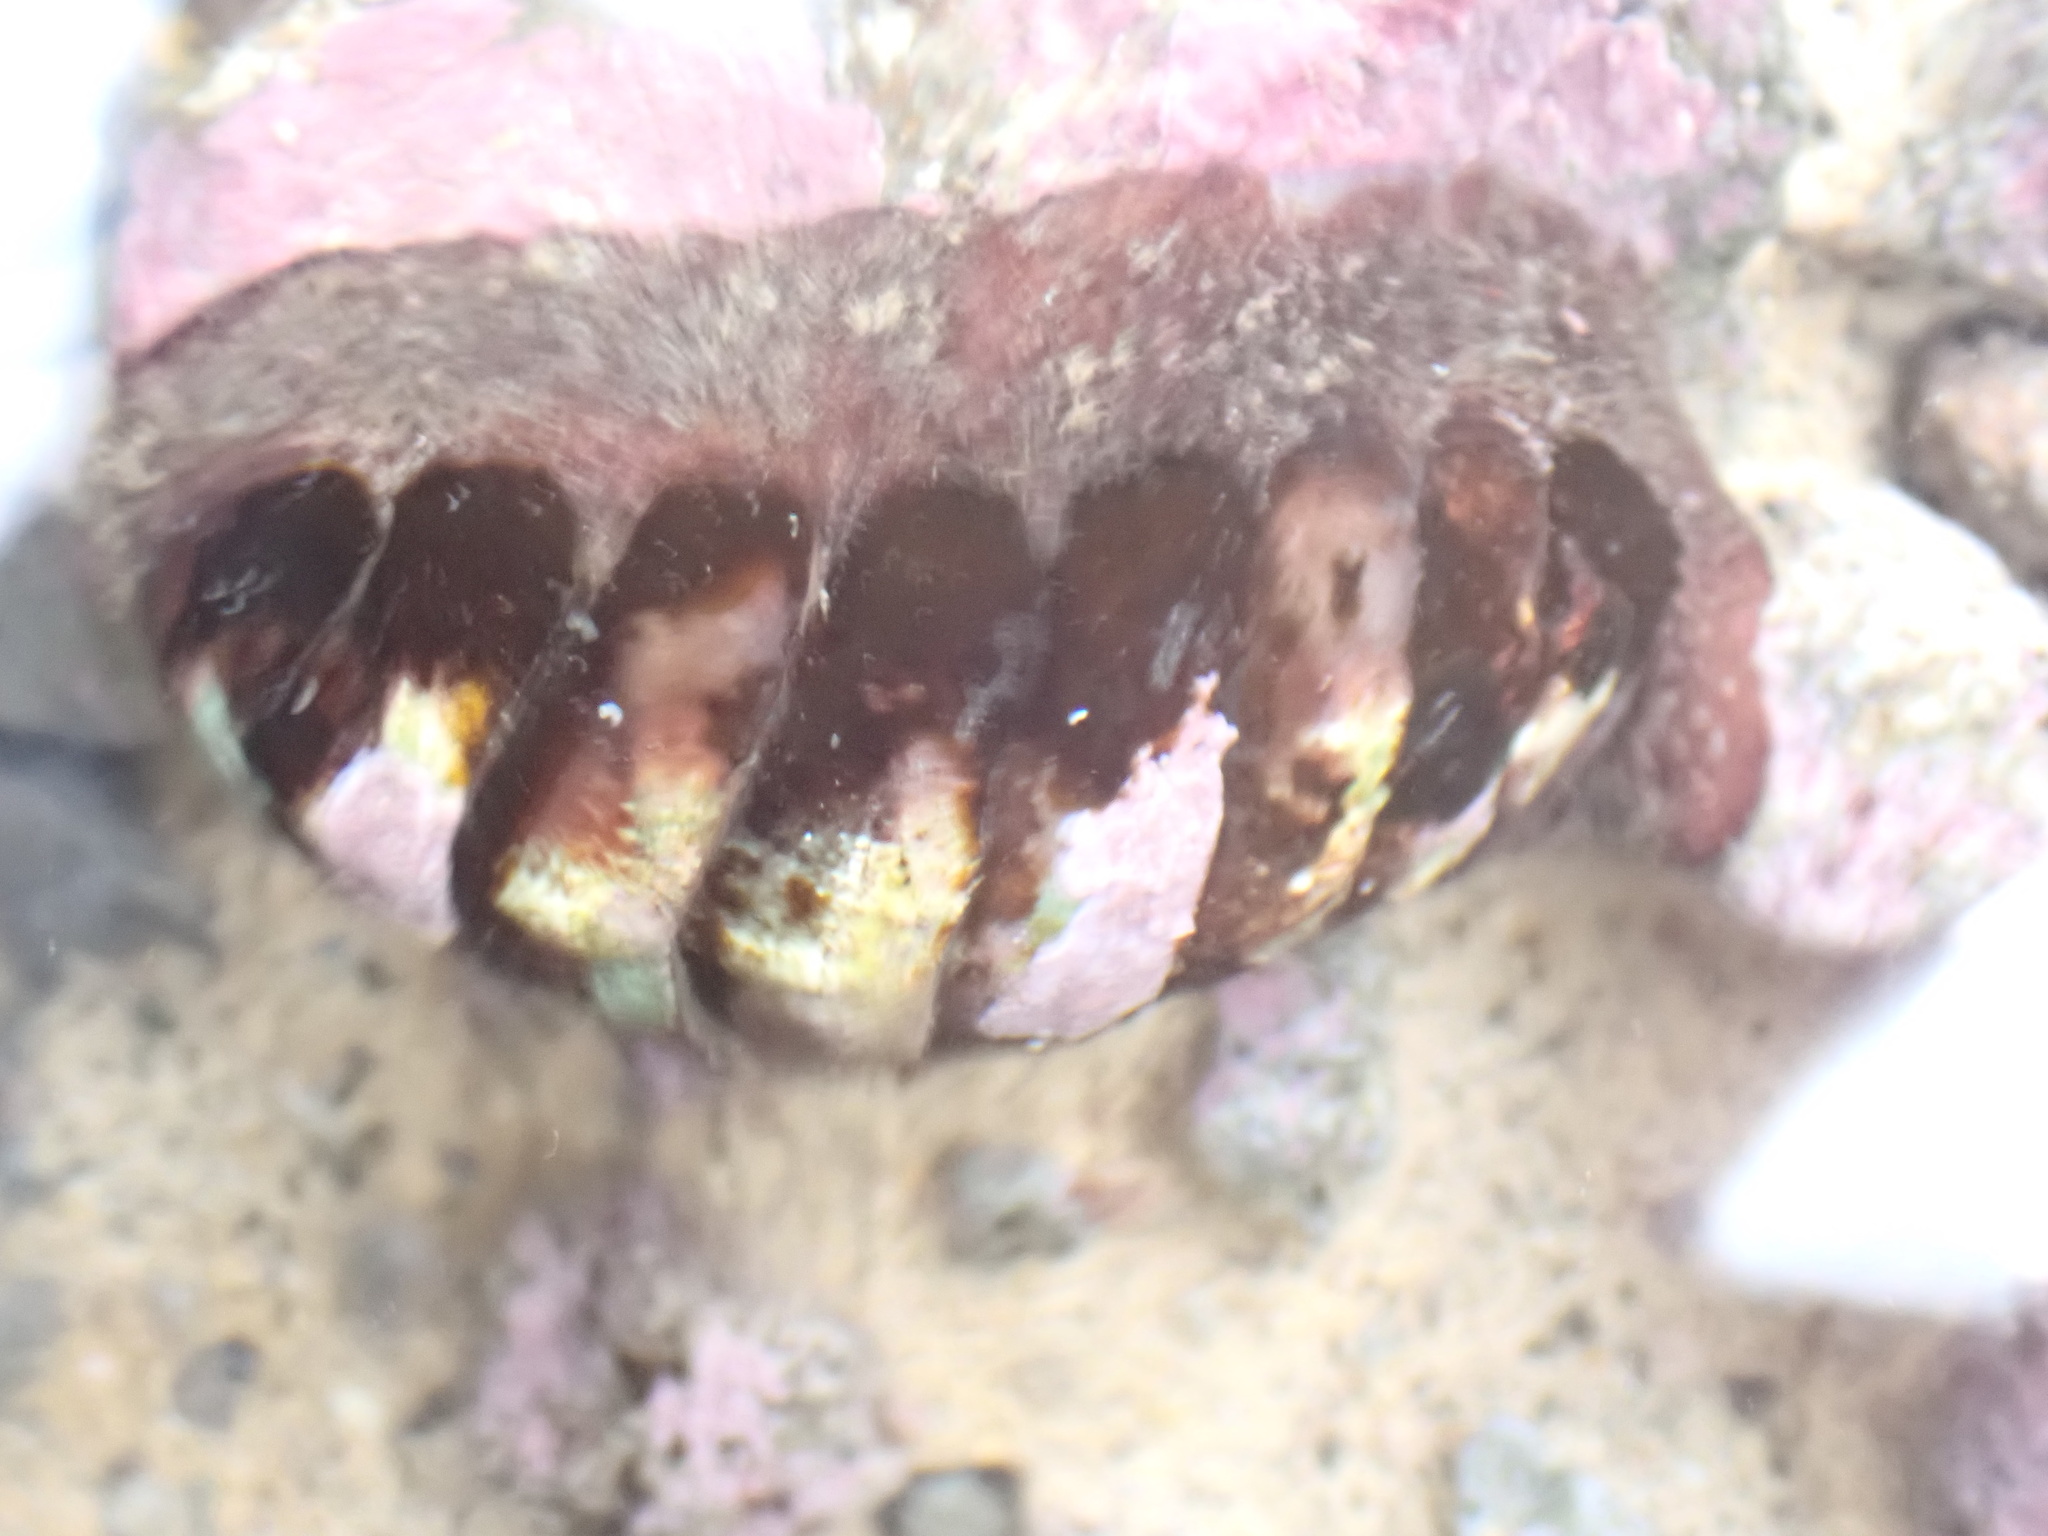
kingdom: Animalia
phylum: Mollusca
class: Polyplacophora
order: Callochitonida
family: Callochitonidae
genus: Eudoxochiton
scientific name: Eudoxochiton nobilis
